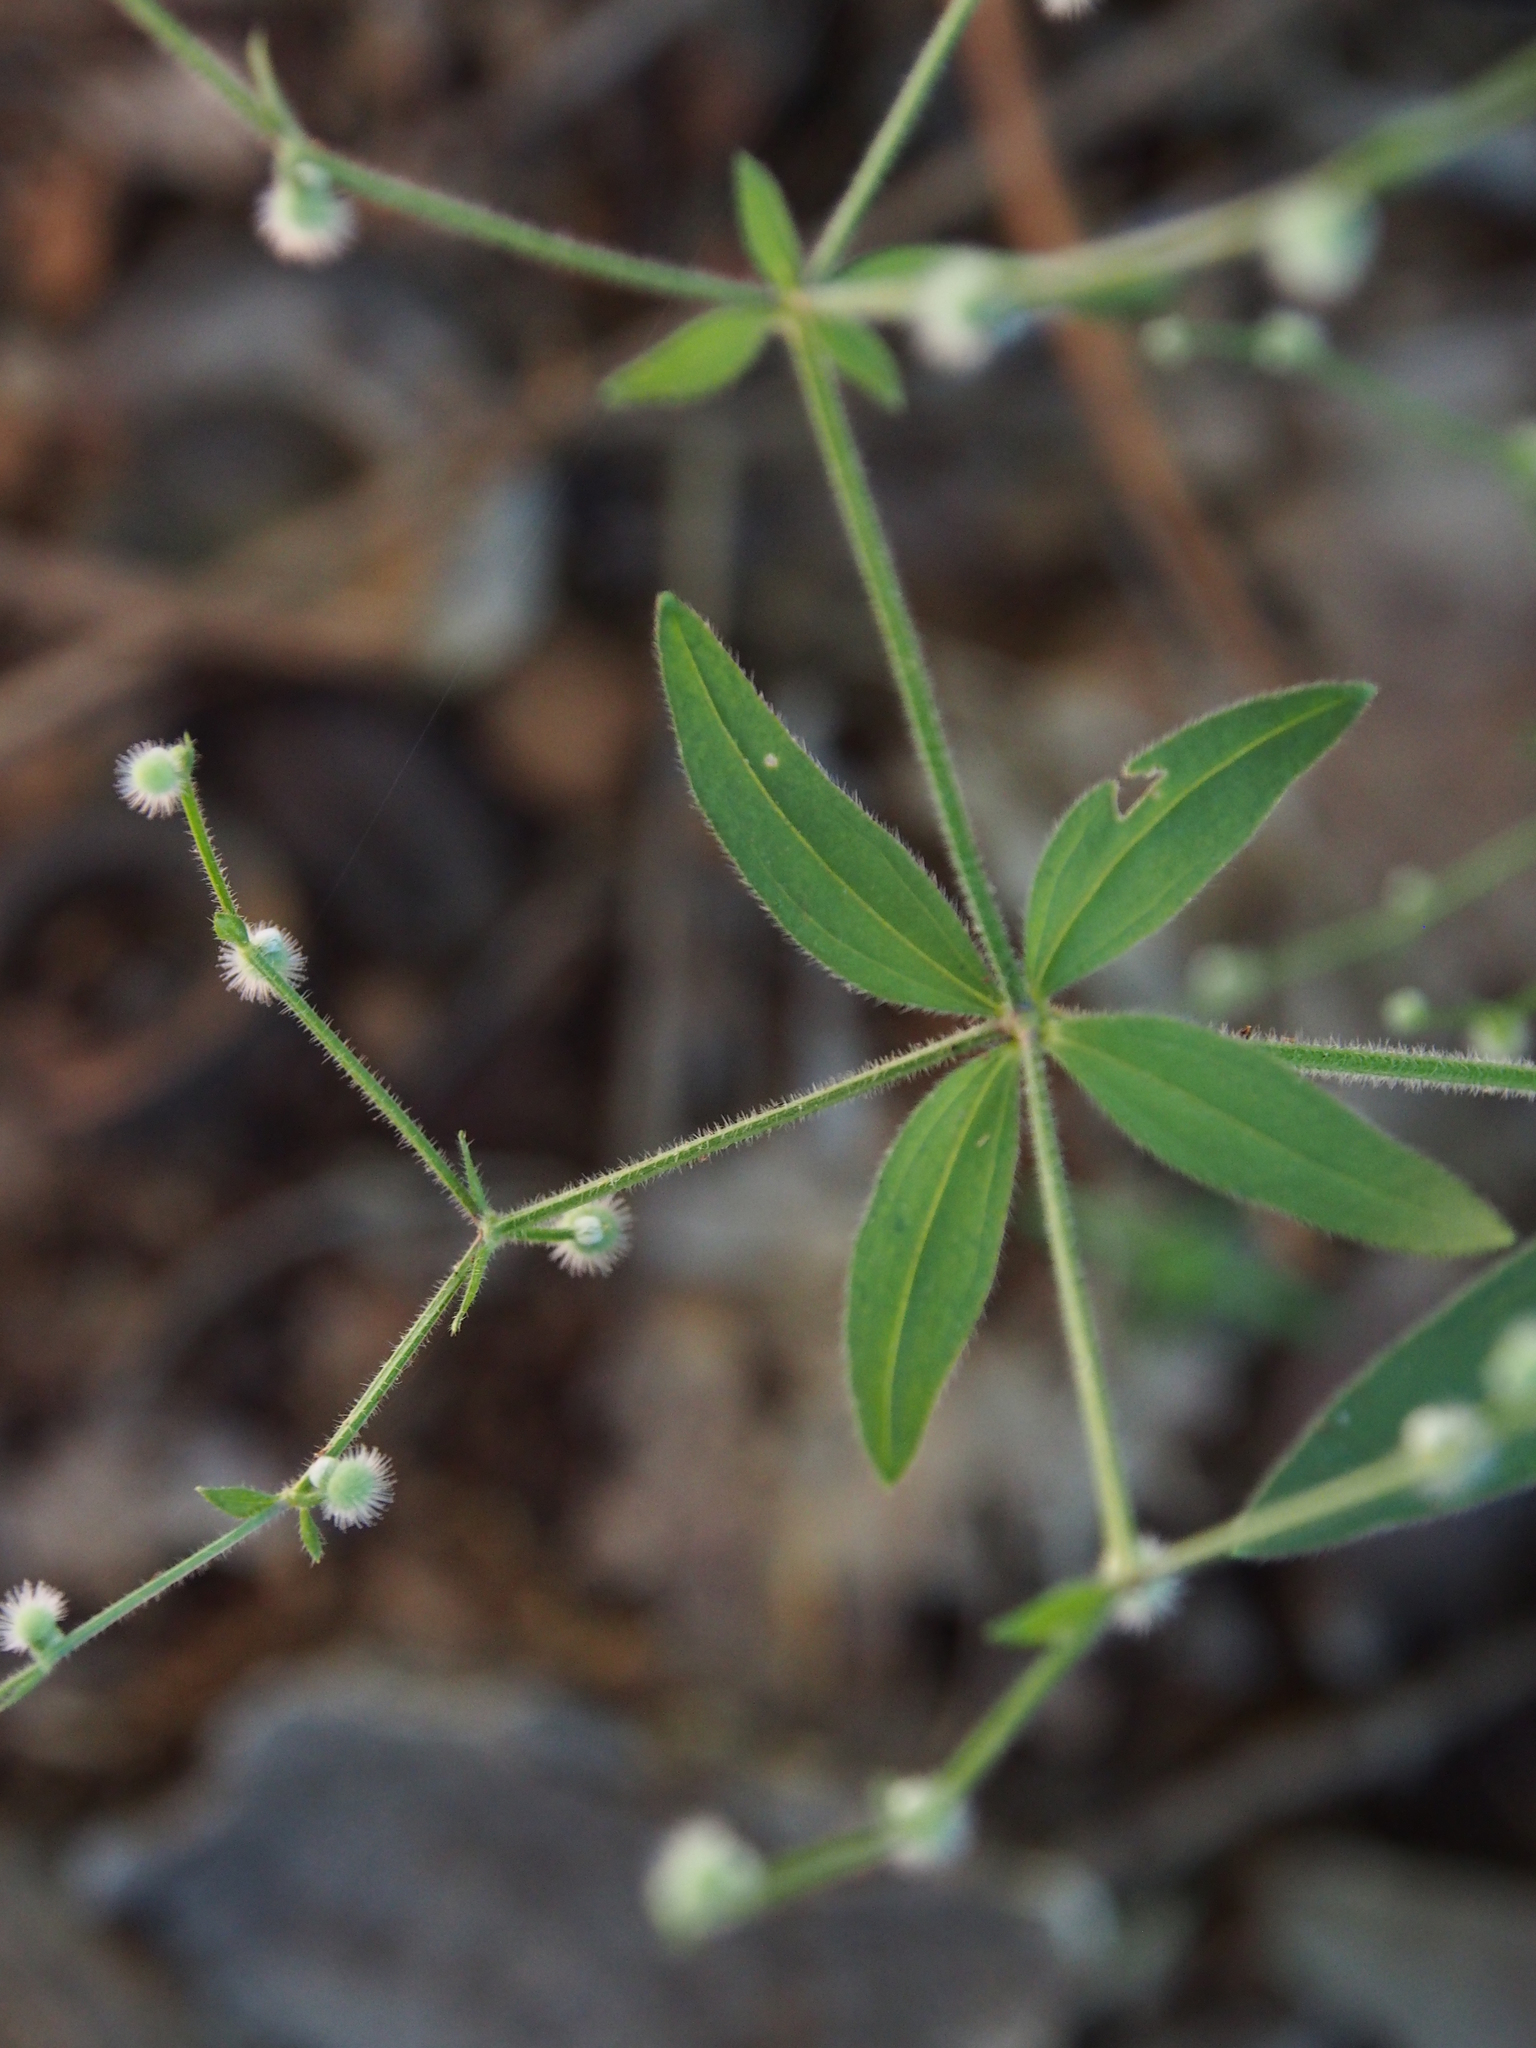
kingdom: Plantae
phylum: Tracheophyta
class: Magnoliopsida
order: Gentianales
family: Rubiaceae
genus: Galium
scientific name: Galium circaezans
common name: Forest bedstraw
